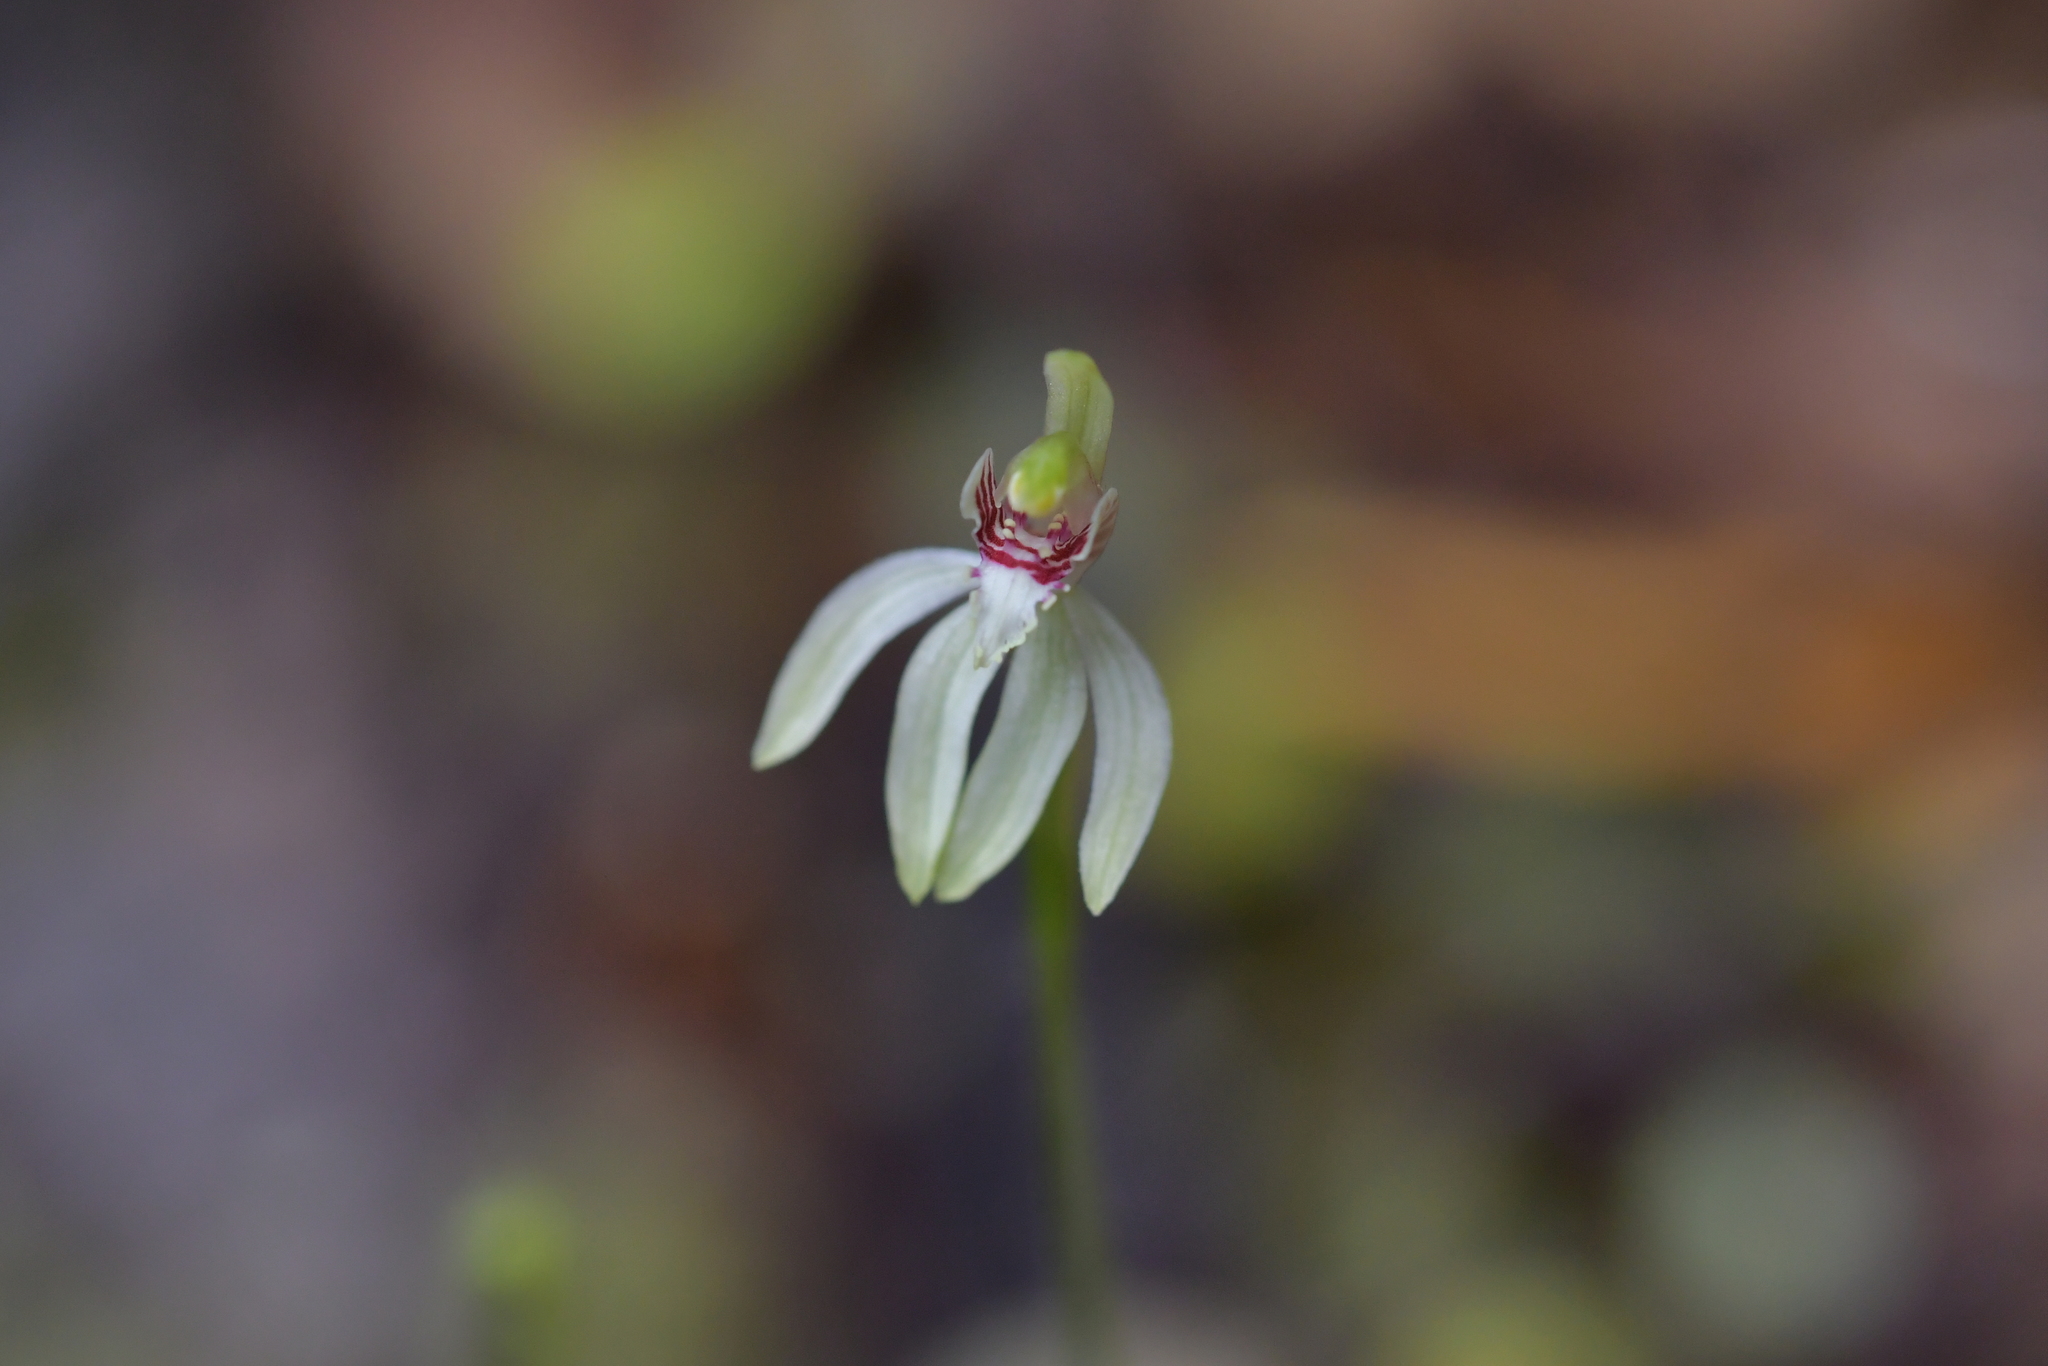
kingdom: Plantae
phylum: Tracheophyta
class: Liliopsida
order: Asparagales
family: Orchidaceae
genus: Caladenia
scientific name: Caladenia chlorostyla
